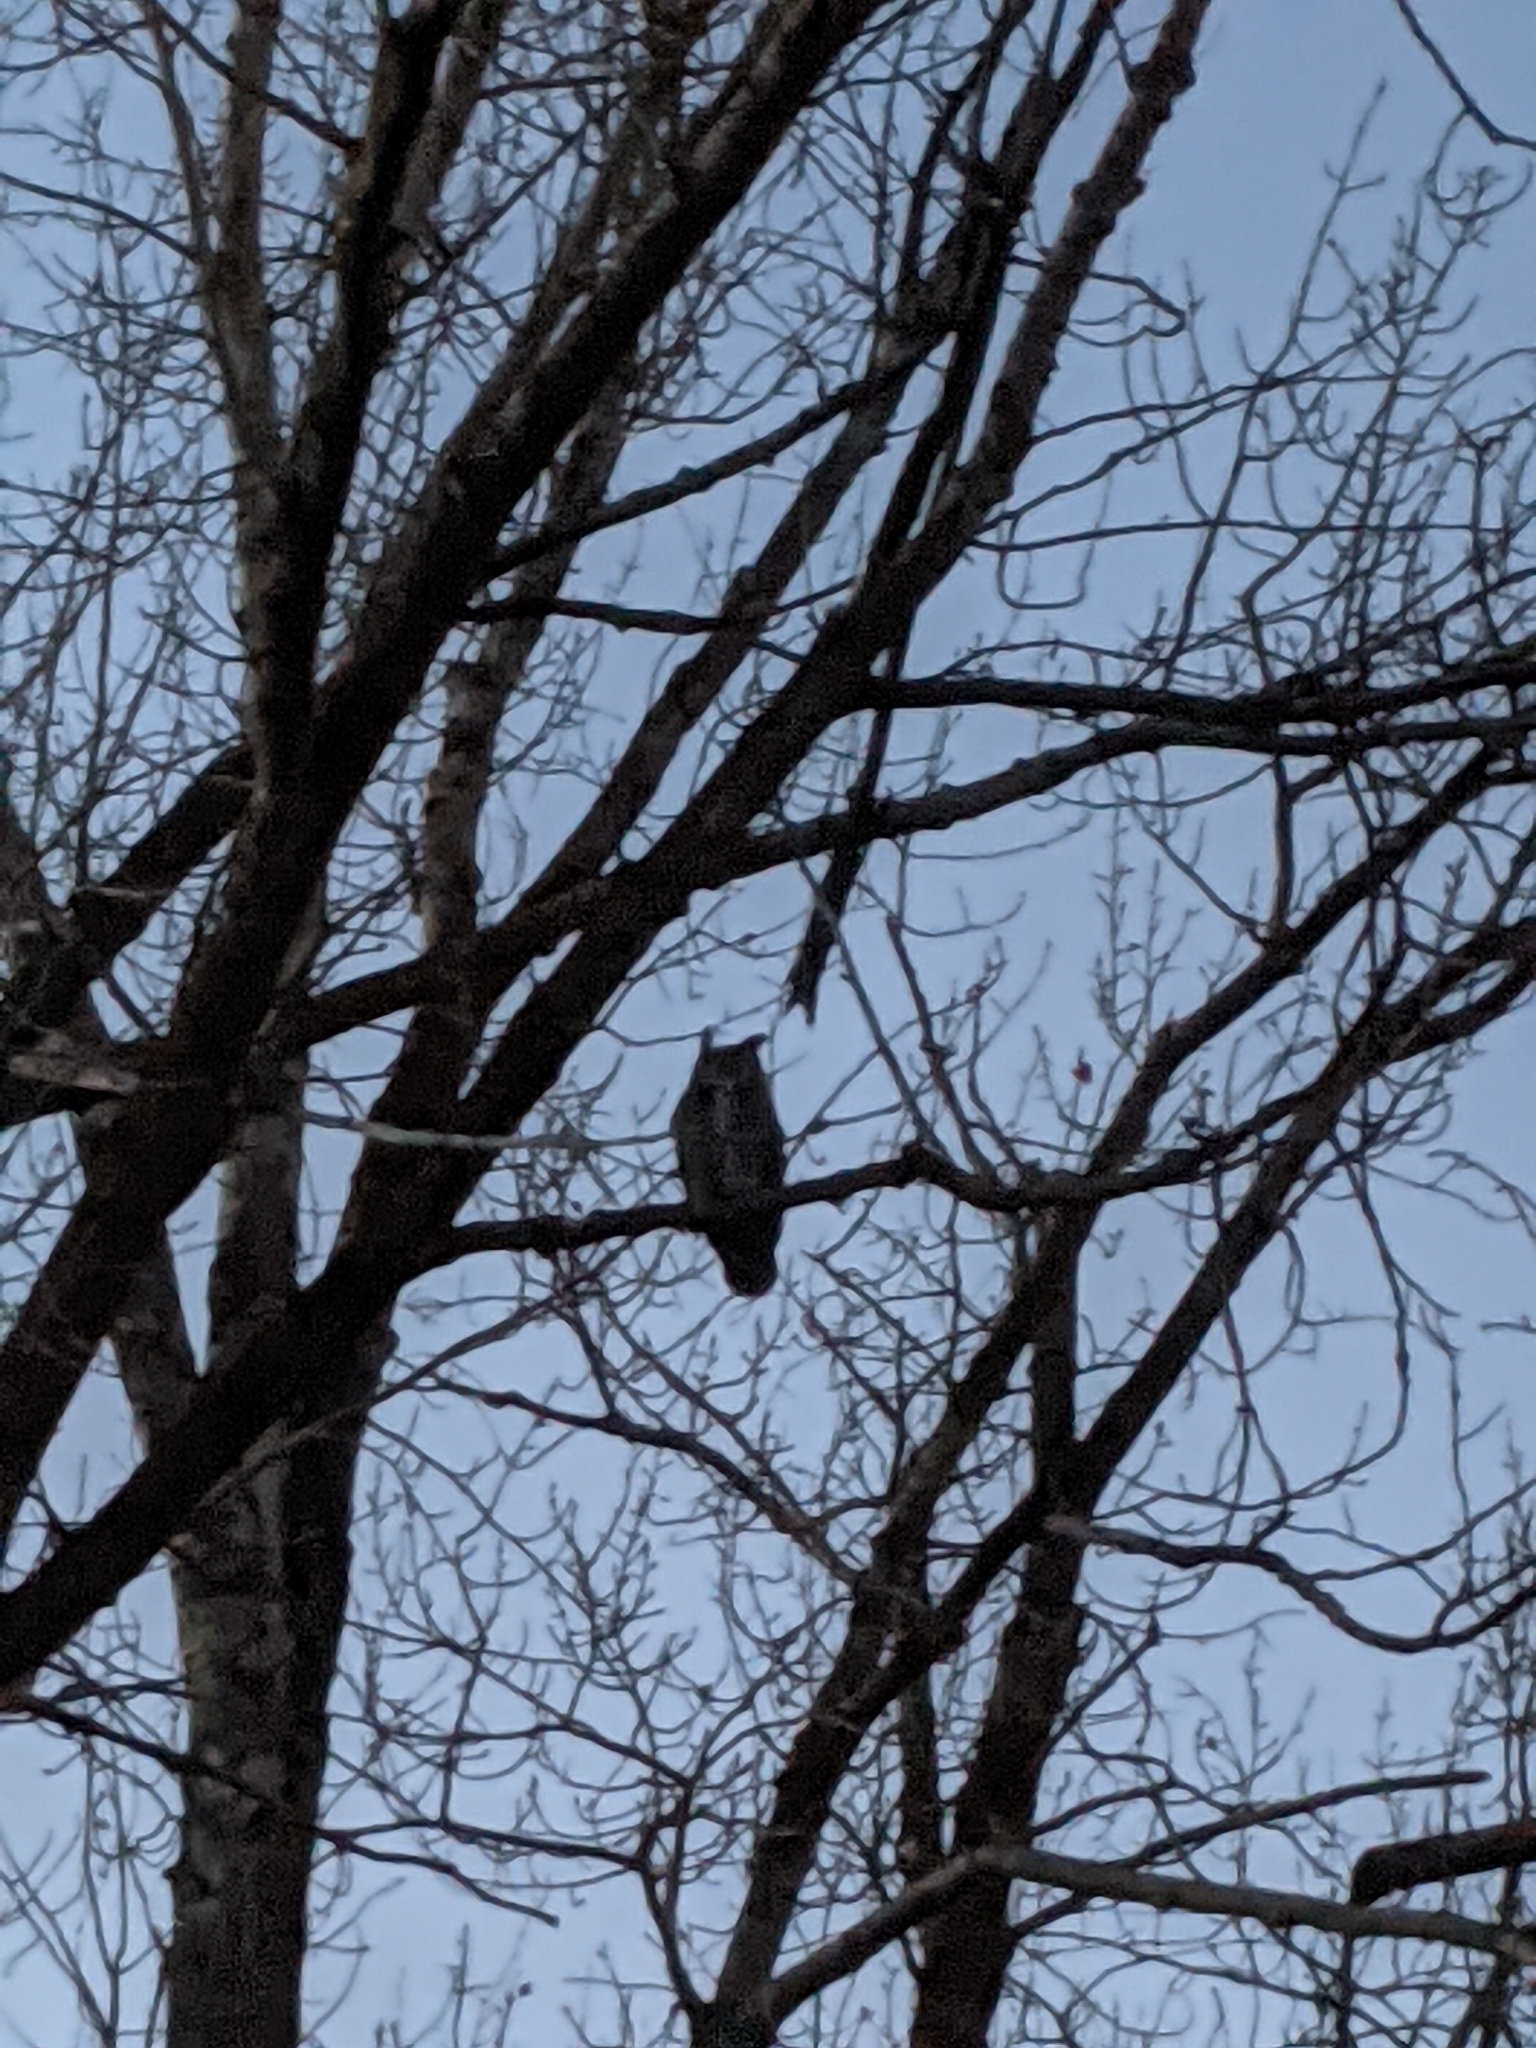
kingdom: Animalia
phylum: Chordata
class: Aves
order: Strigiformes
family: Strigidae
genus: Bubo
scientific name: Bubo virginianus
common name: Great horned owl
